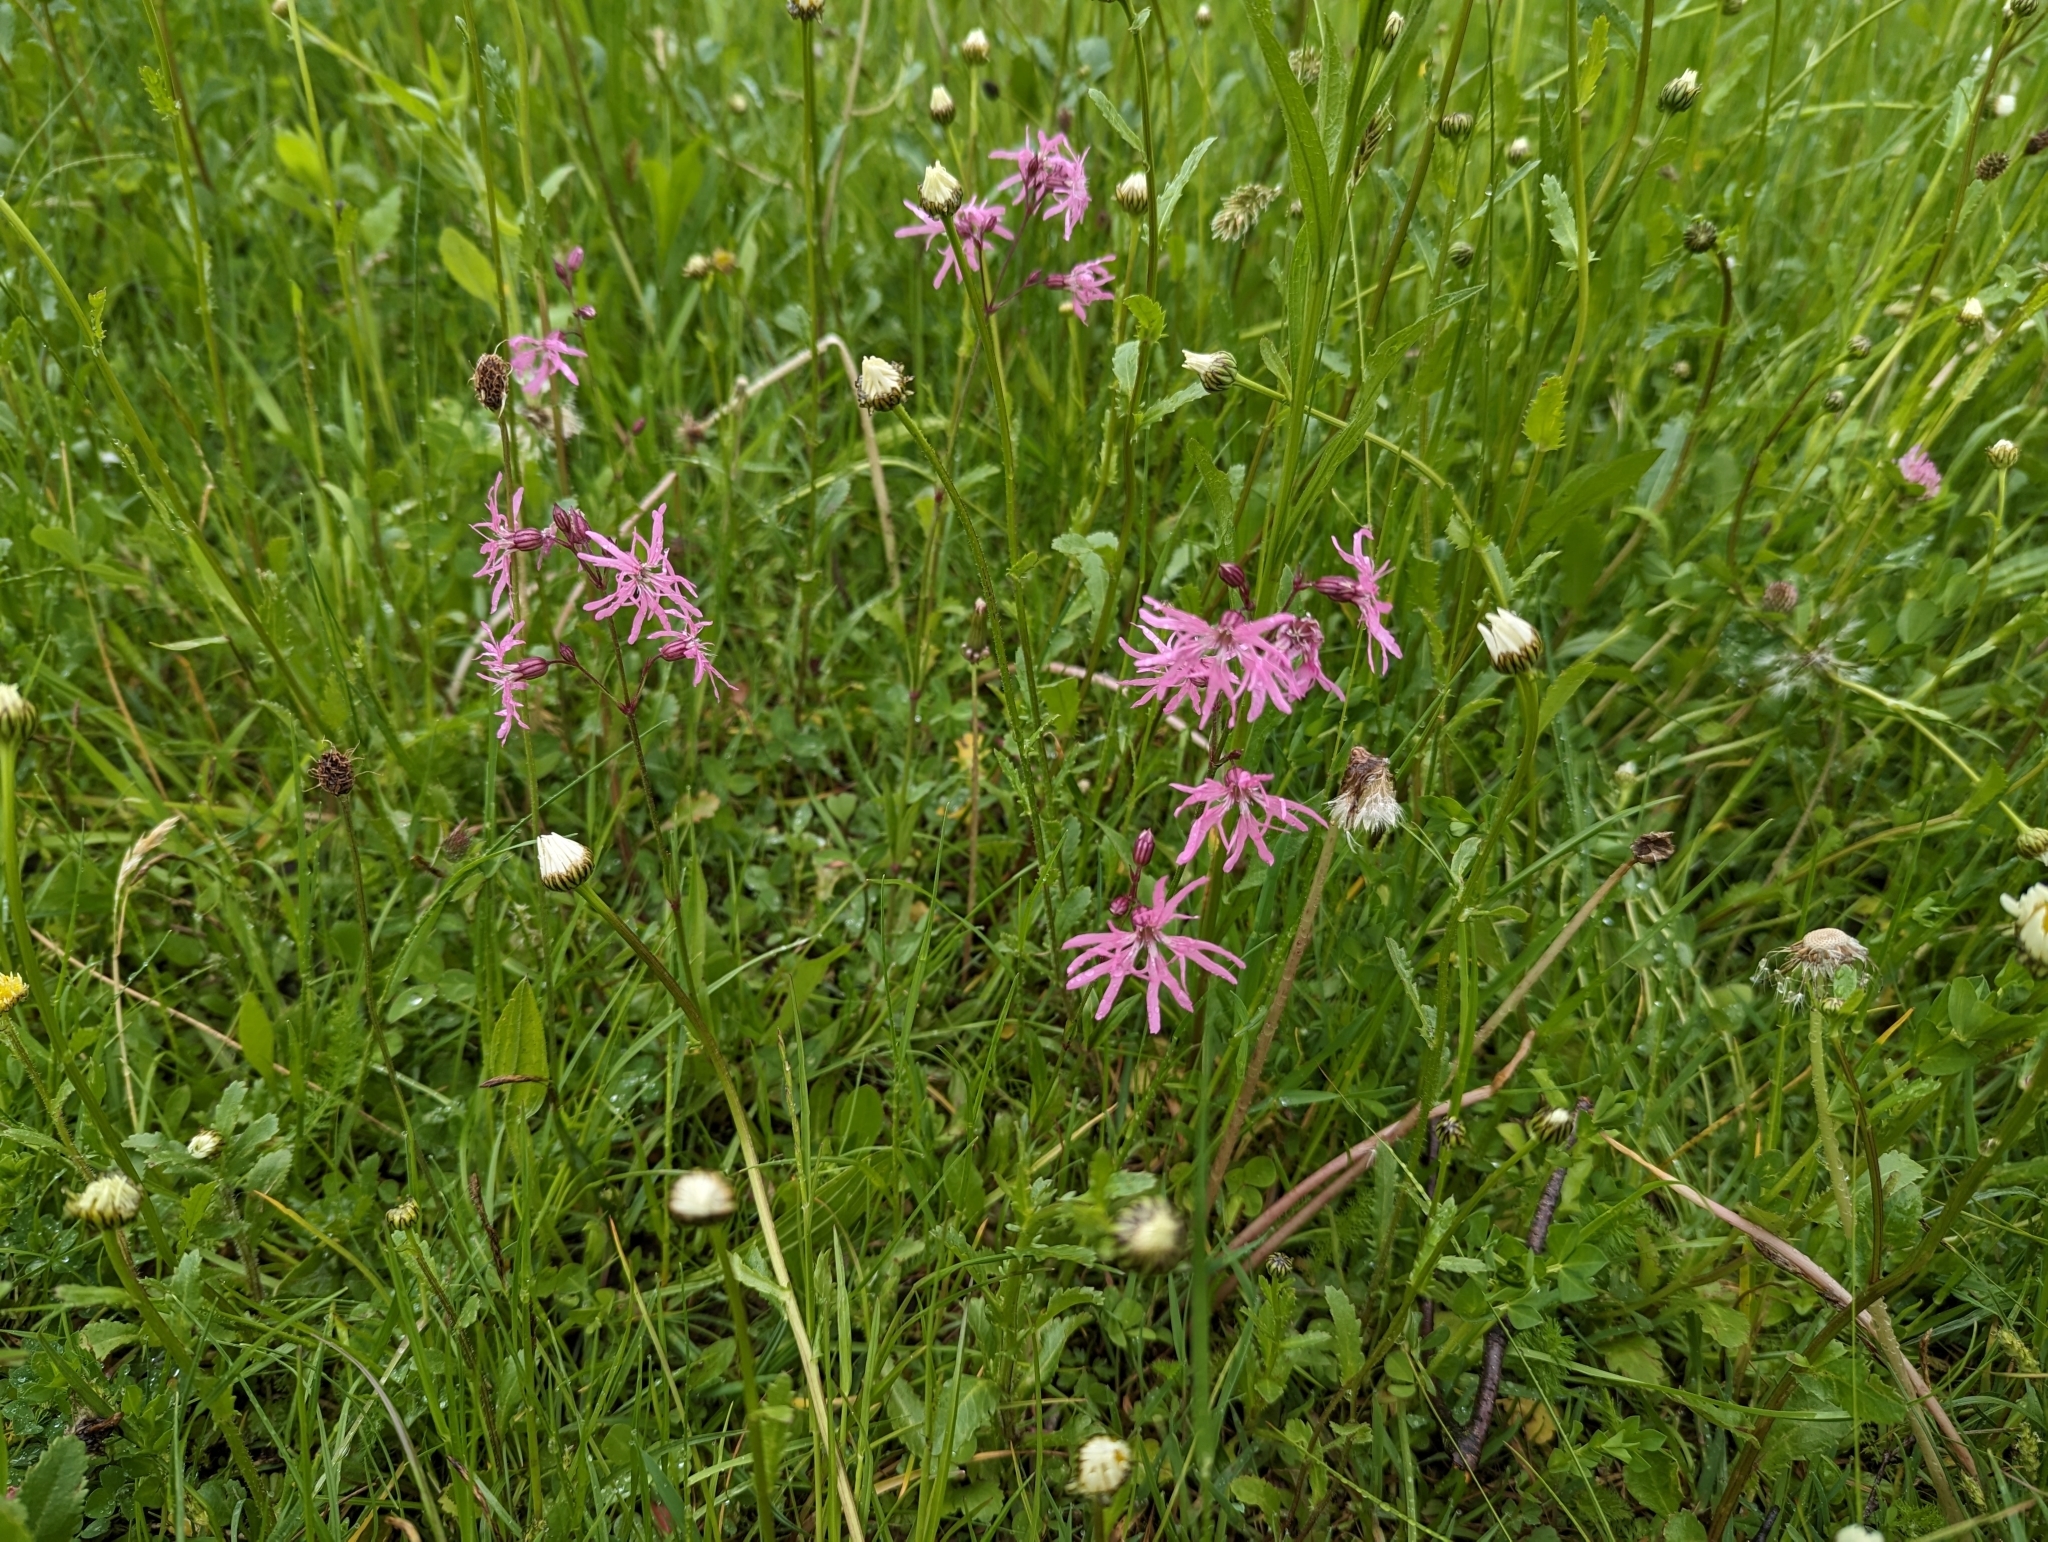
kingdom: Plantae
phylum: Tracheophyta
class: Magnoliopsida
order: Caryophyllales
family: Caryophyllaceae
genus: Silene
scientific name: Silene flos-cuculi
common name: Ragged-robin
